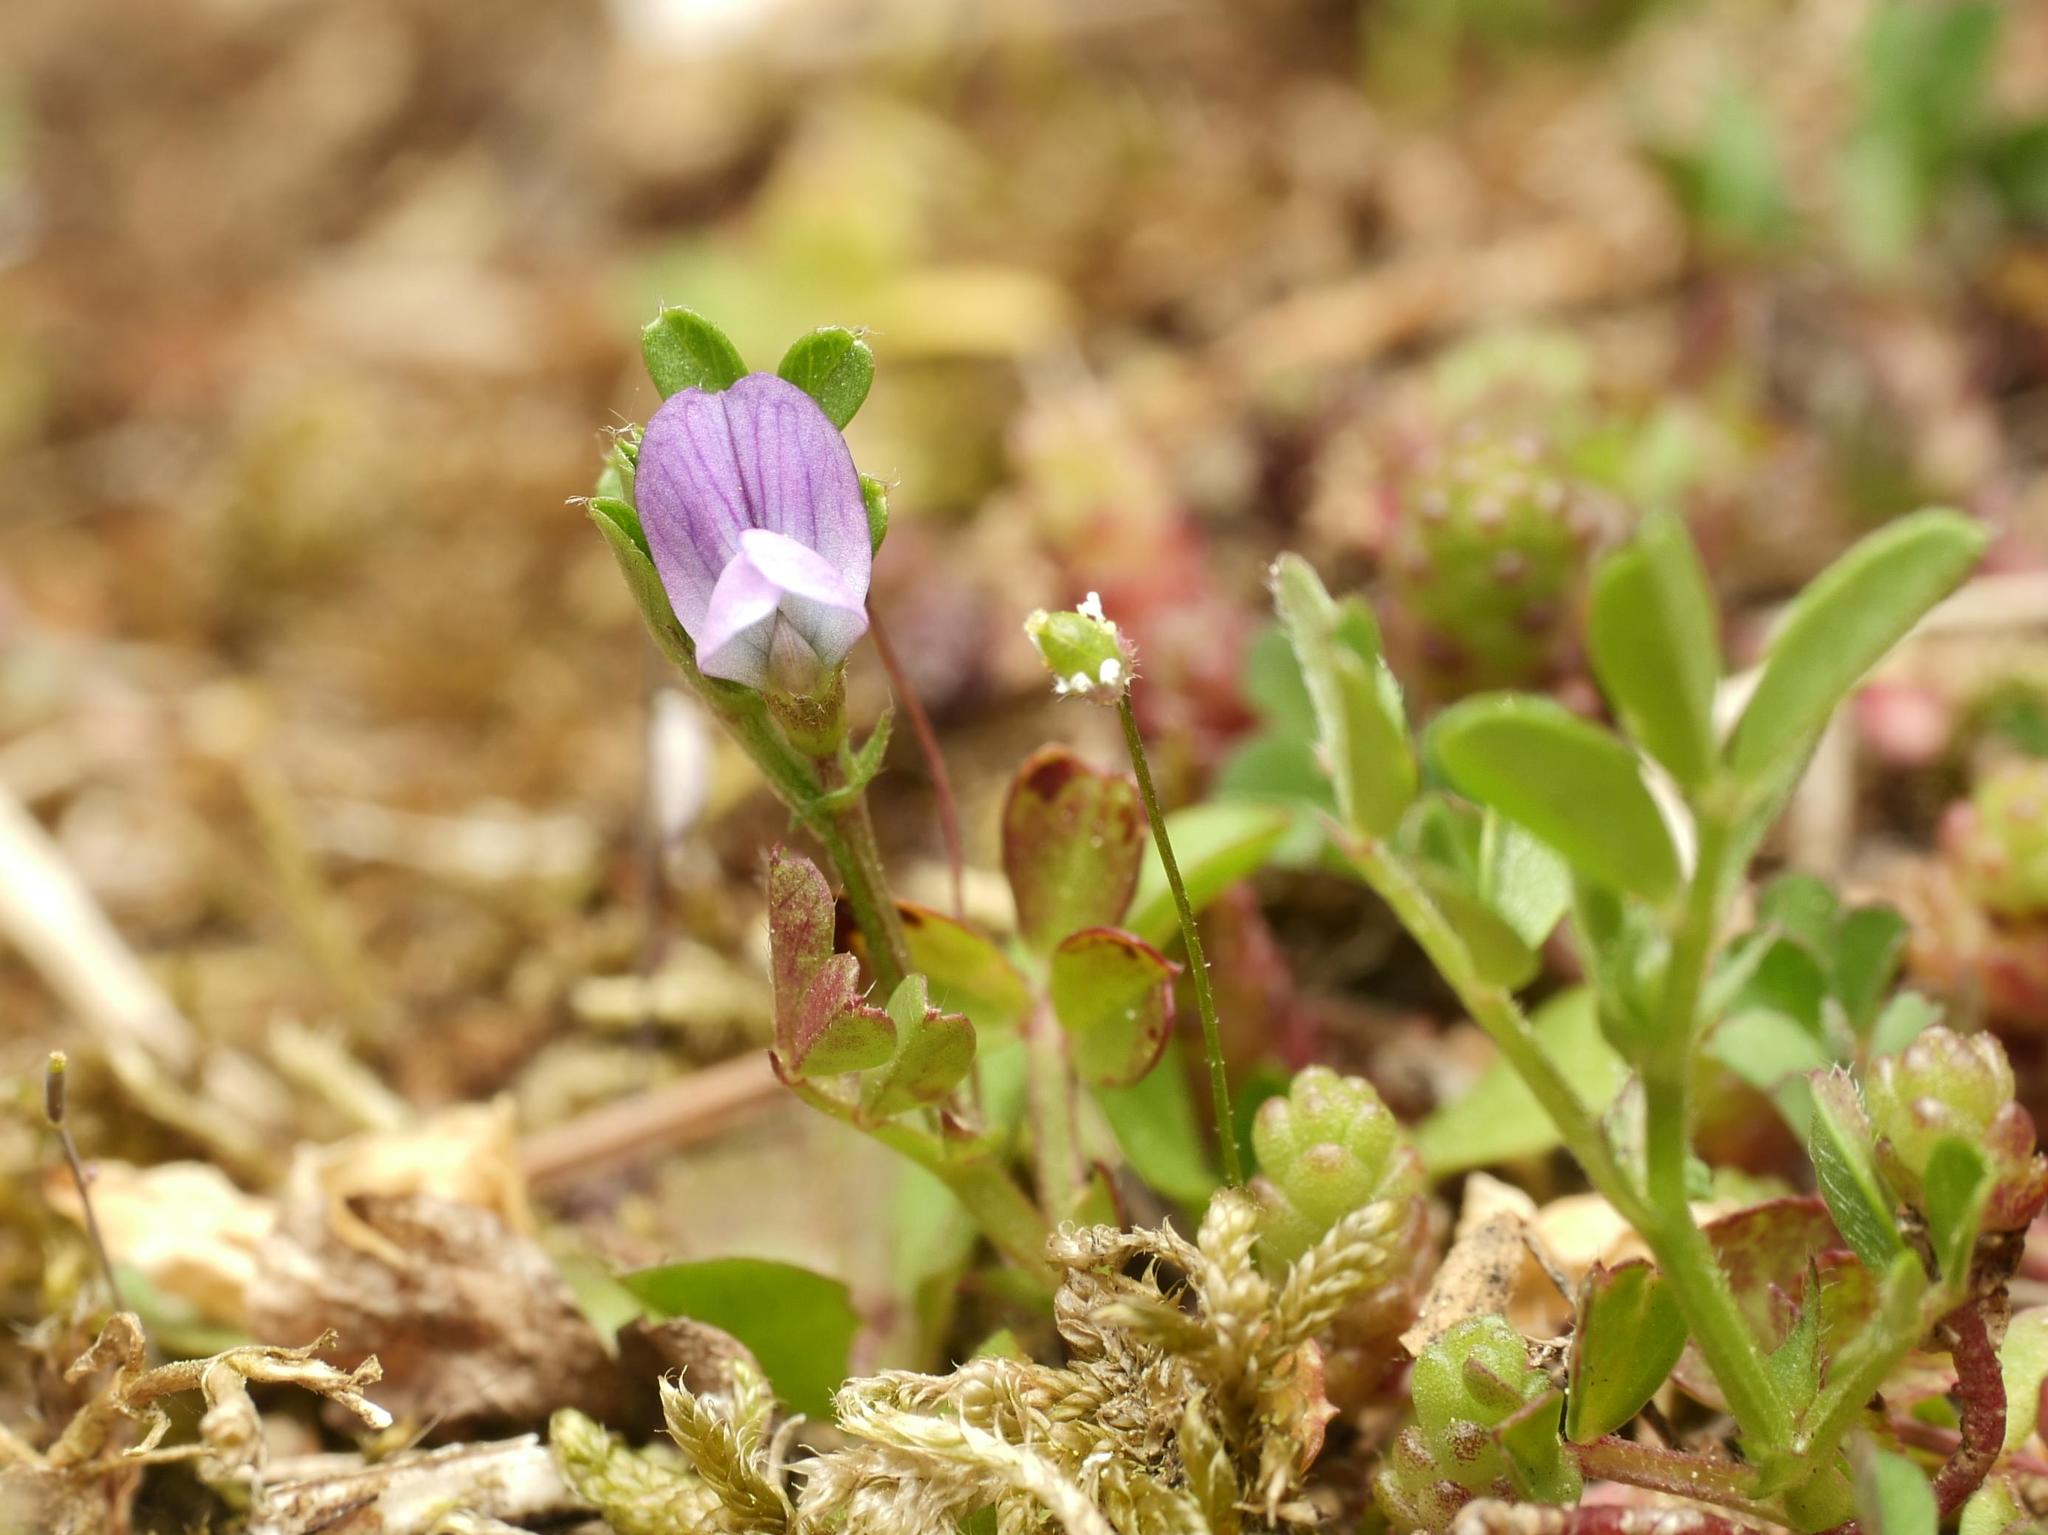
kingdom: Plantae
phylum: Tracheophyta
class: Magnoliopsida
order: Fabales
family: Fabaceae
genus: Vicia
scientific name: Vicia lathyroides
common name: Spring vetch
